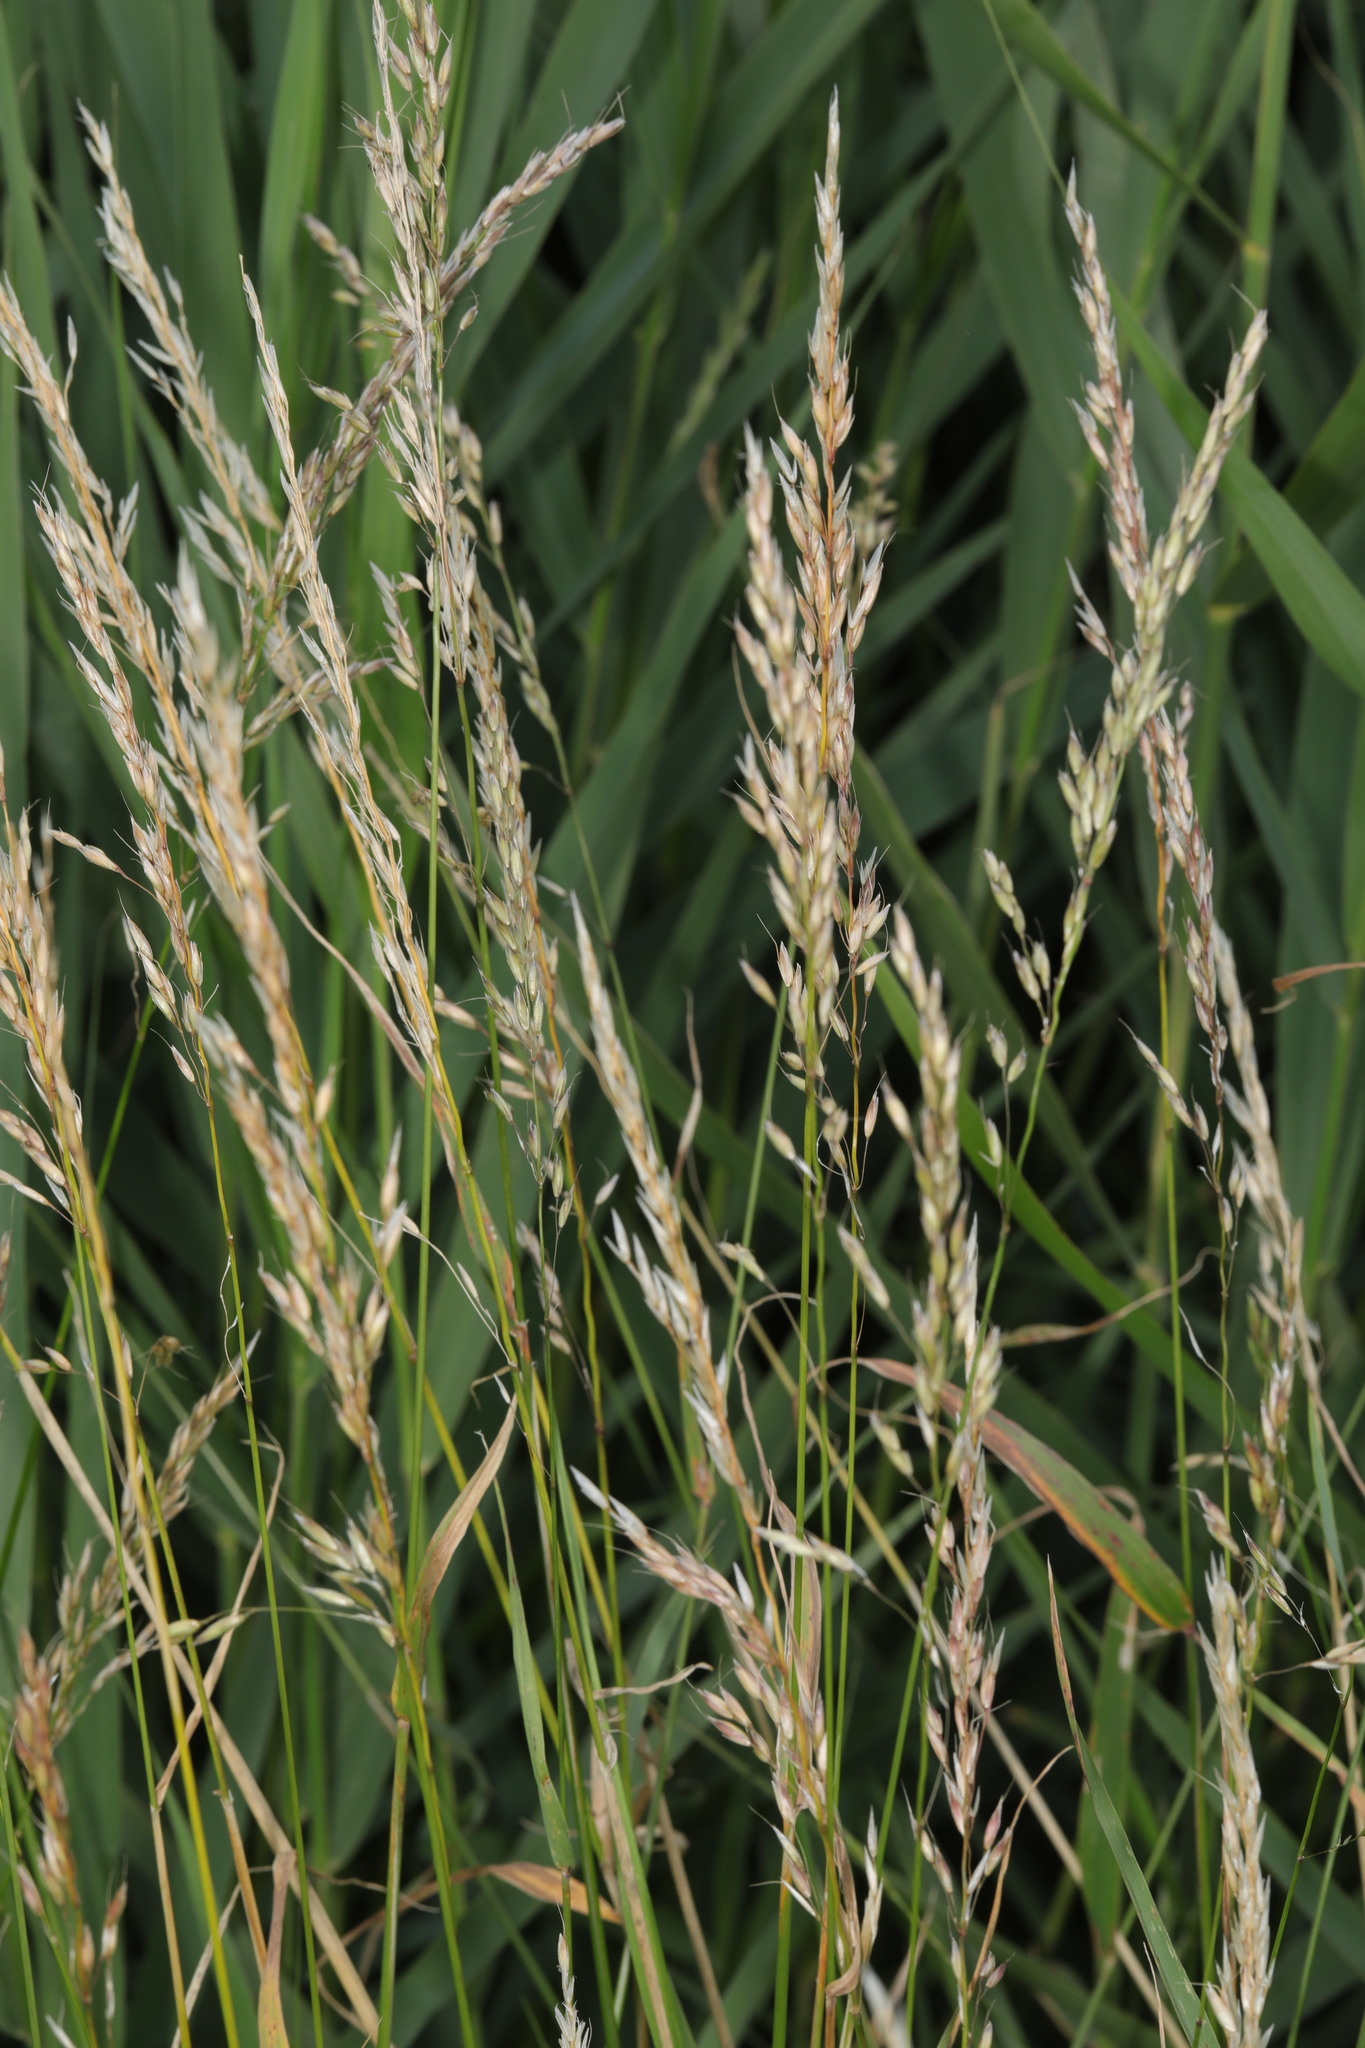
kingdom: Plantae
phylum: Tracheophyta
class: Liliopsida
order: Poales
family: Poaceae
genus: Arrhenatherum
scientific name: Arrhenatherum elatius
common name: Tall oatgrass
